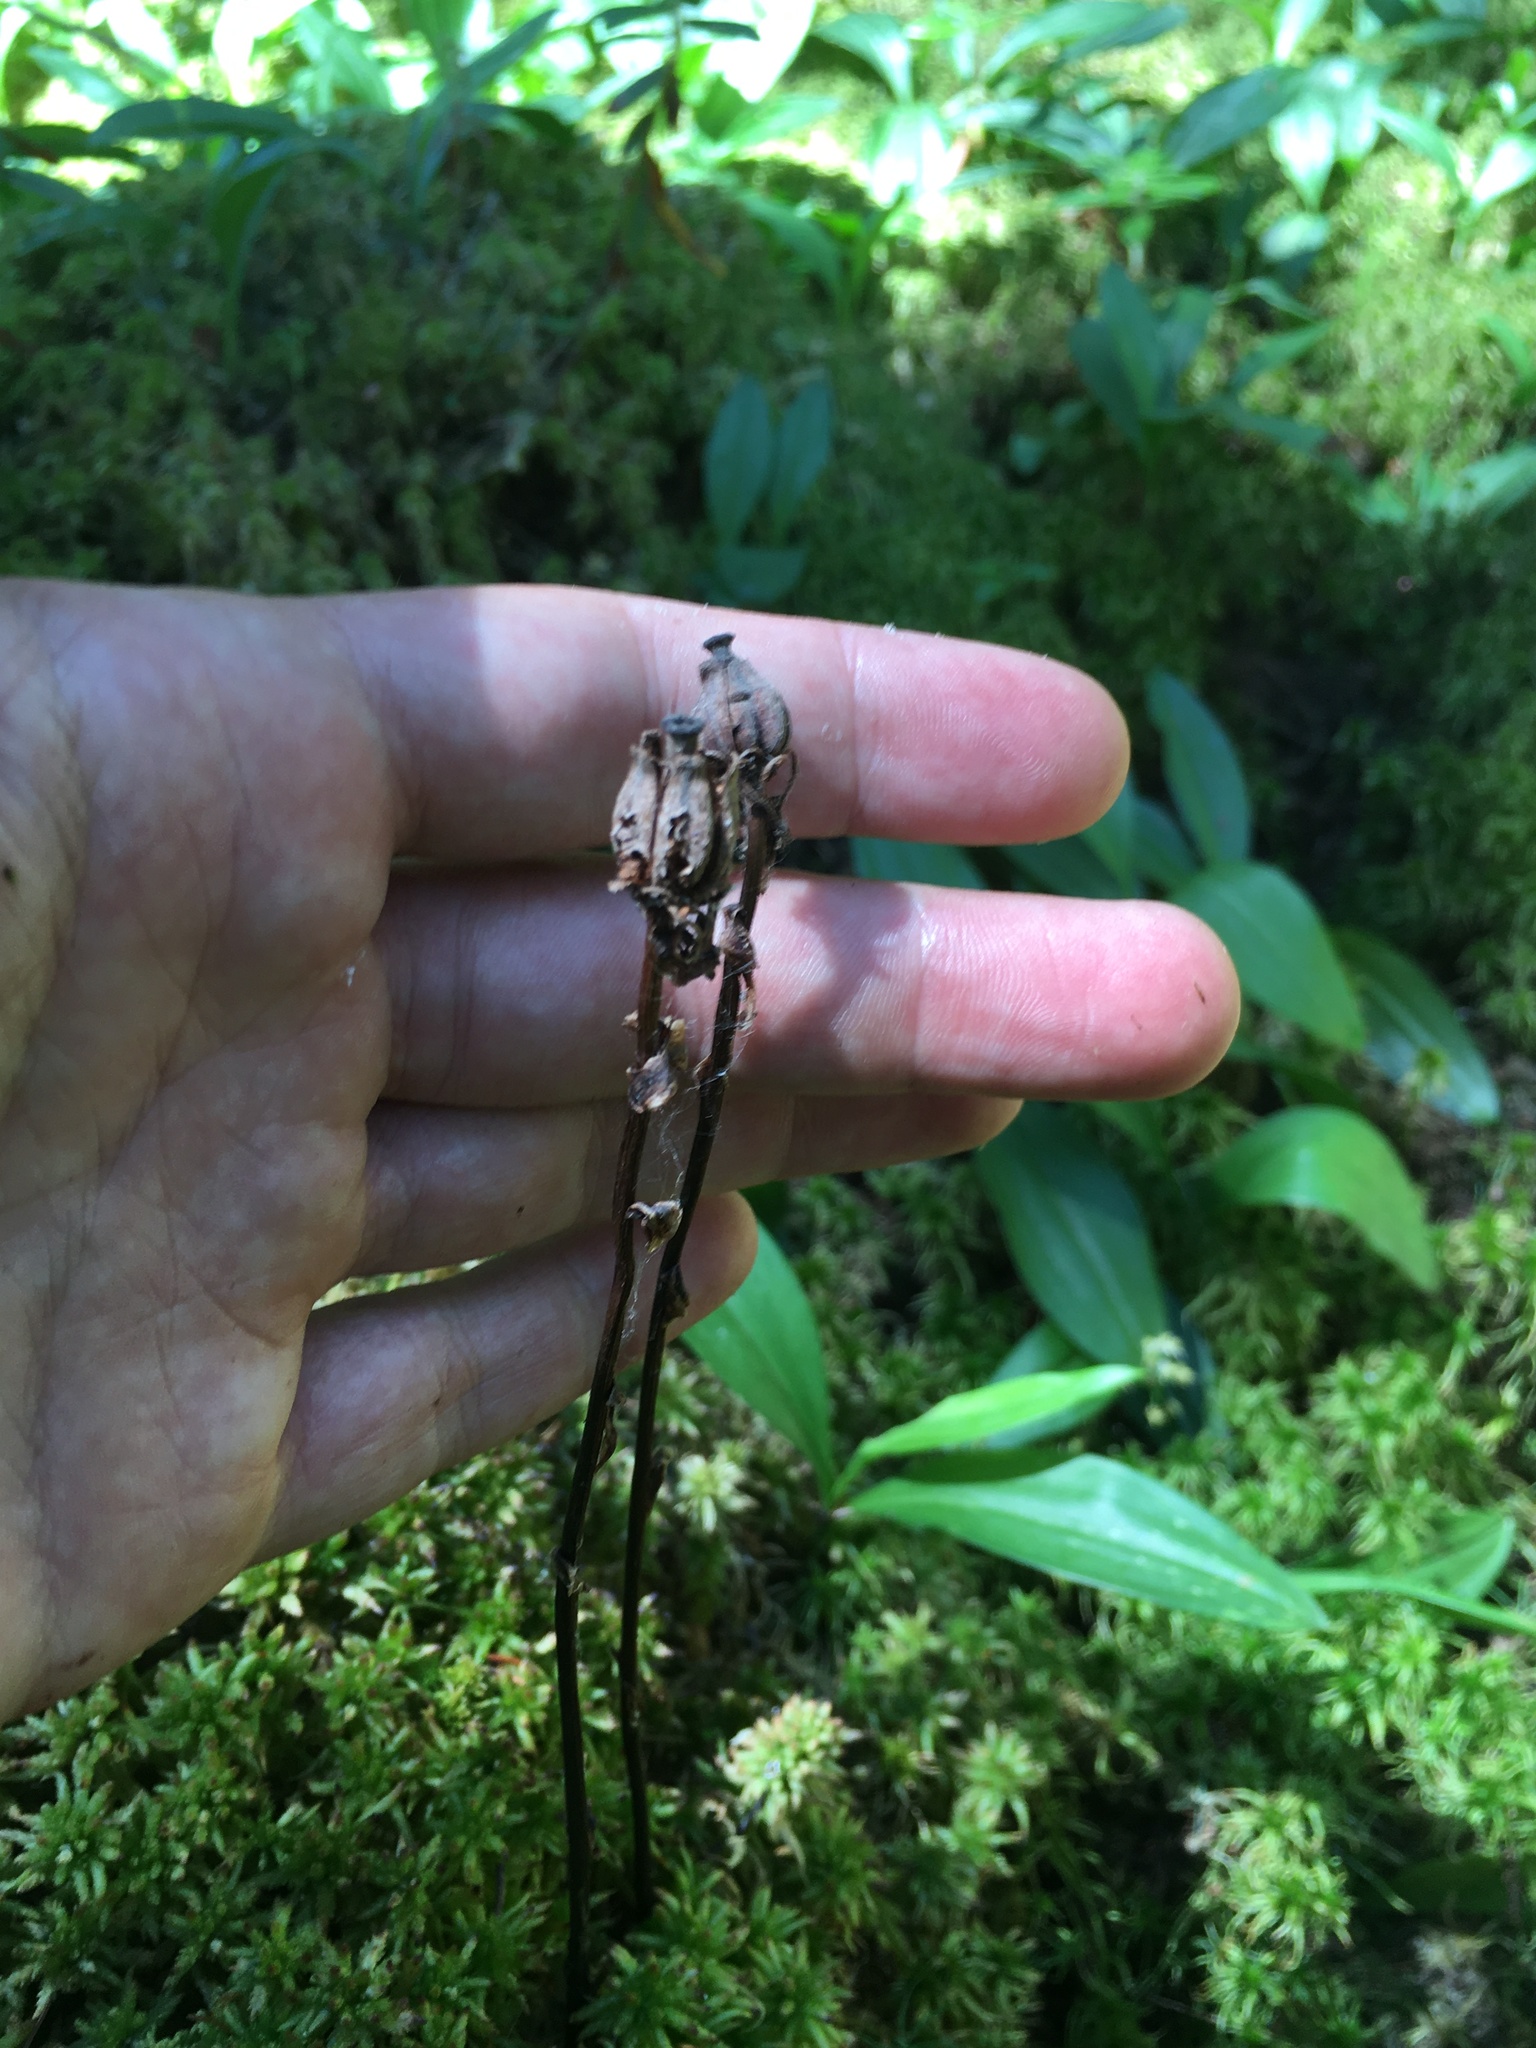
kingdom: Plantae
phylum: Tracheophyta
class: Magnoliopsida
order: Ericales
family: Ericaceae
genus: Monotropa
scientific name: Monotropa uniflora
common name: Convulsion root
